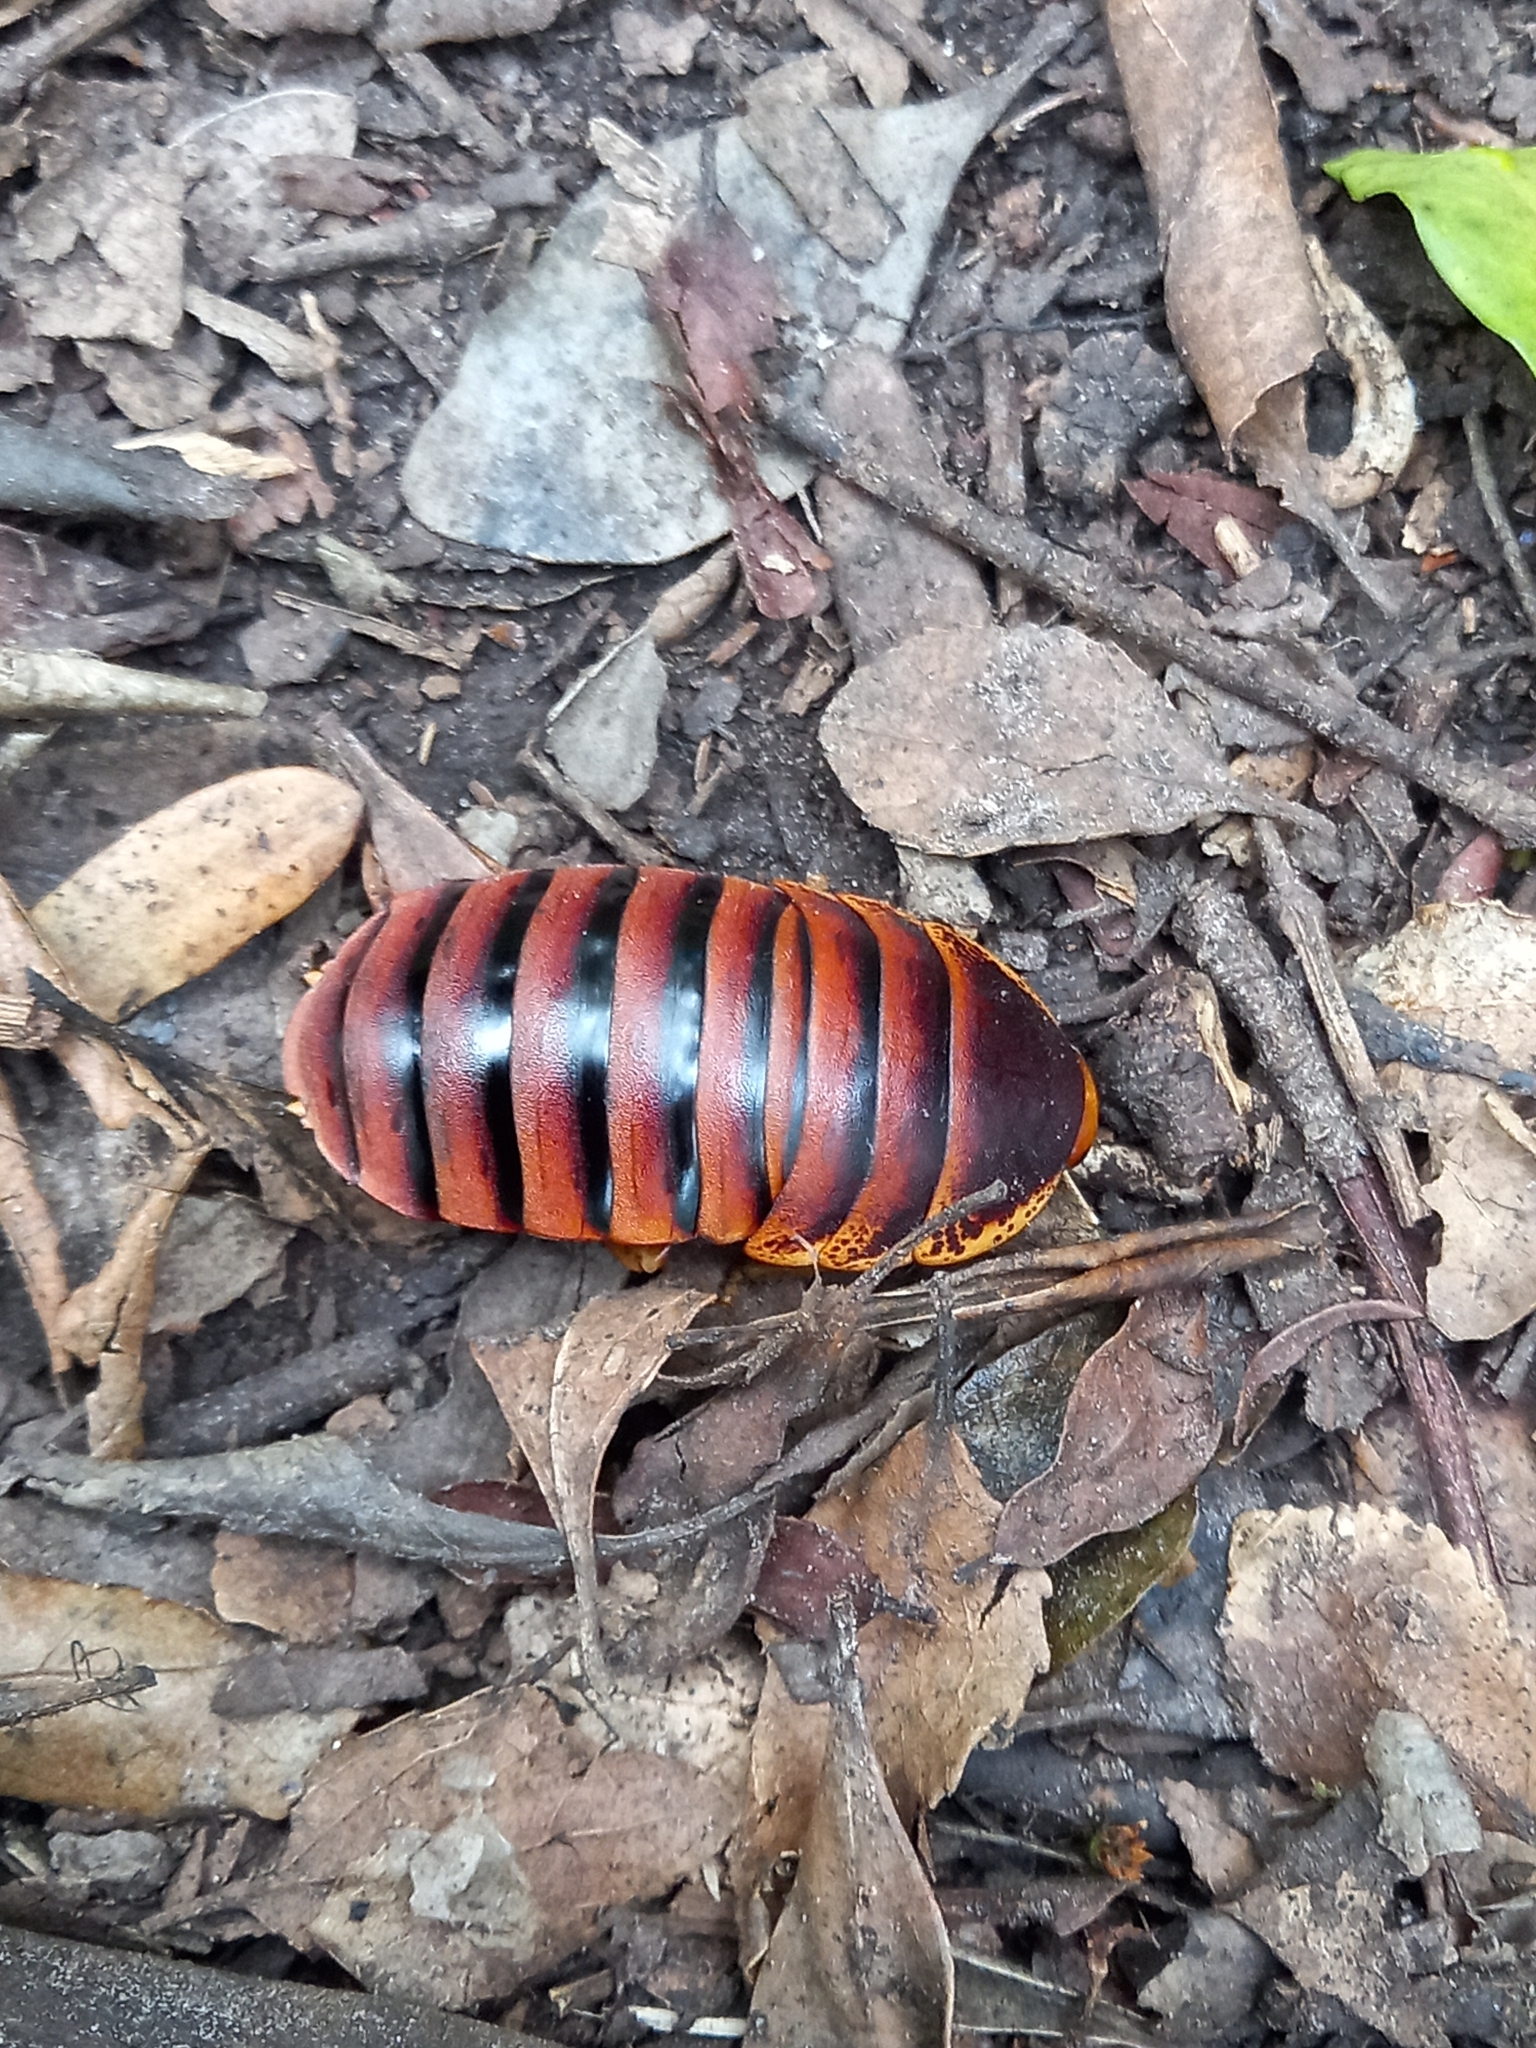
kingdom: Animalia
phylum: Arthropoda
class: Insecta
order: Blattodea
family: Blaberidae
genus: Aptera
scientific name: Aptera fusca
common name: Cape mountain cockroach
